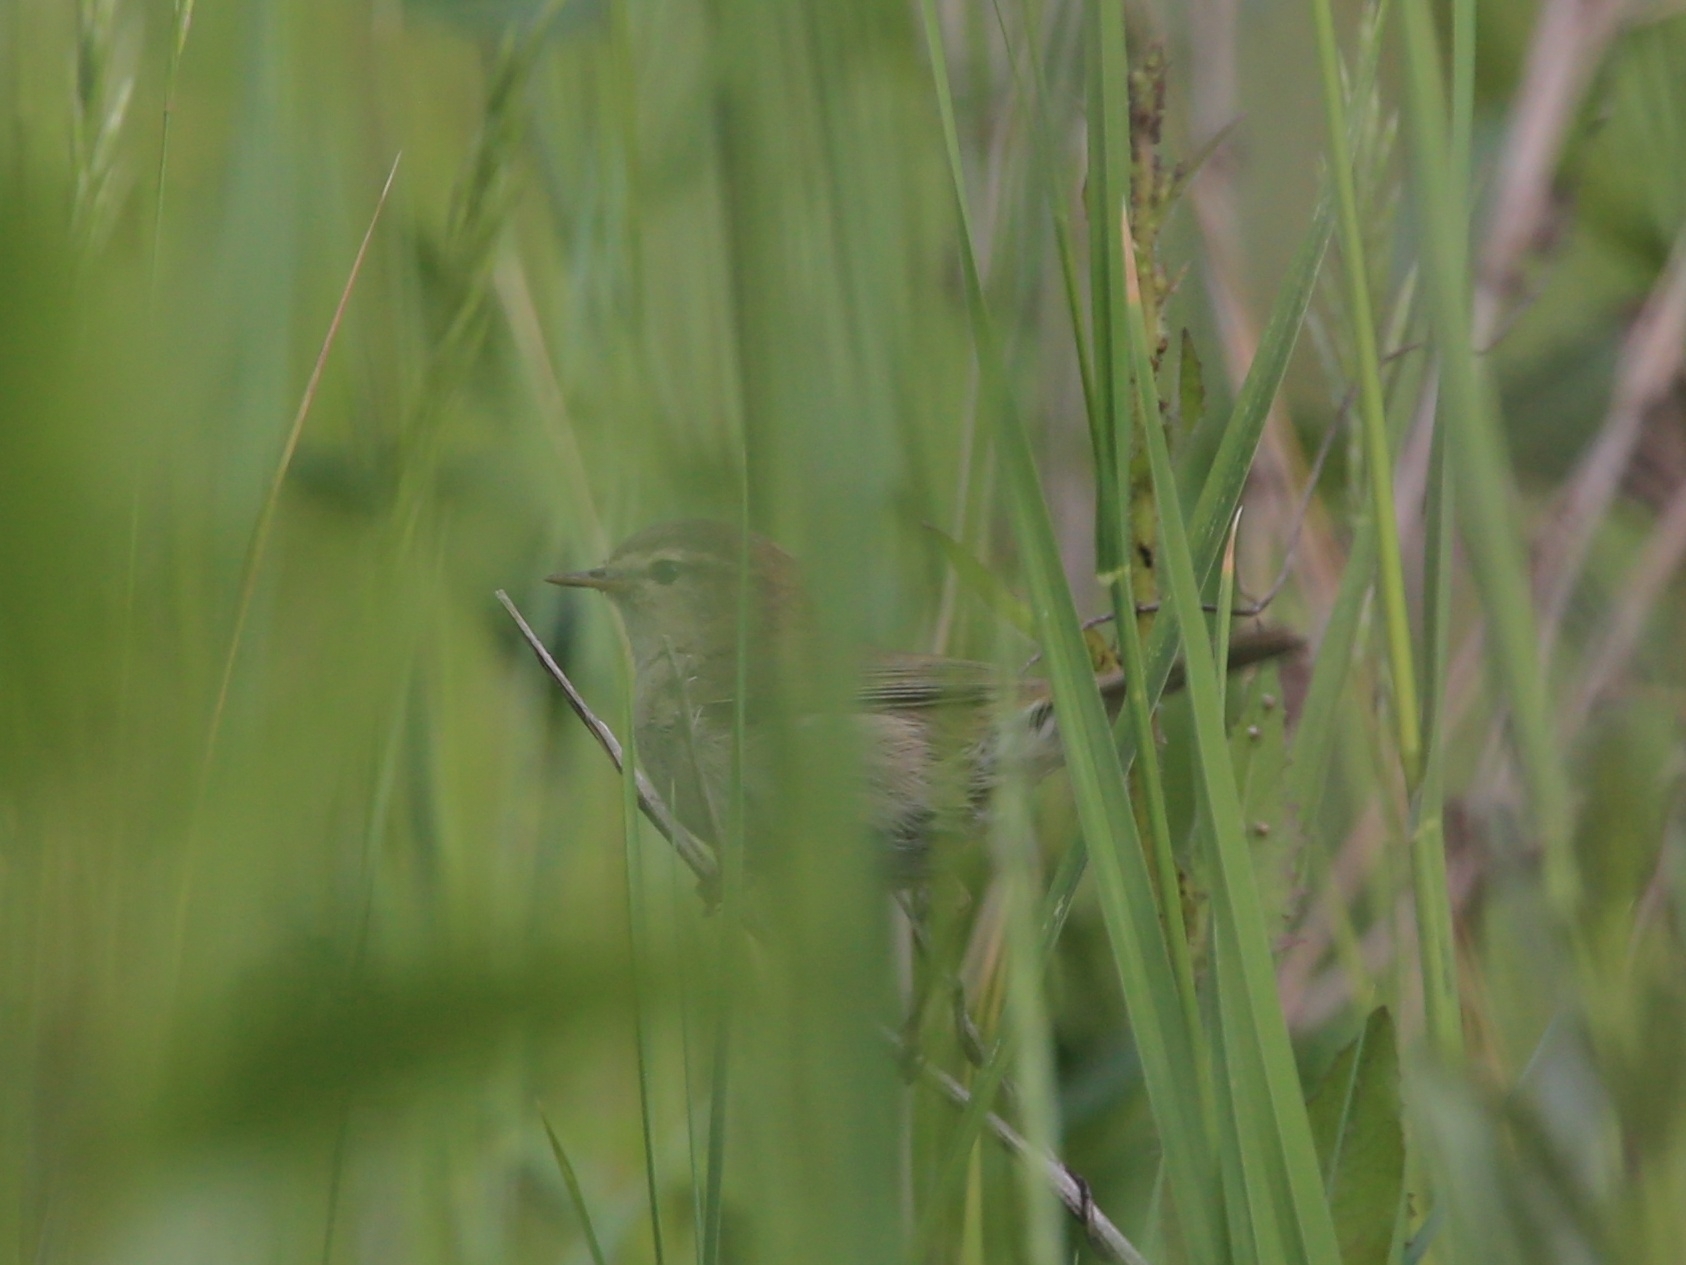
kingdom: Animalia
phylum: Chordata
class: Aves
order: Passeriformes
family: Phylloscopidae
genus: Phylloscopus
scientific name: Phylloscopus collybita
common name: Common chiffchaff
